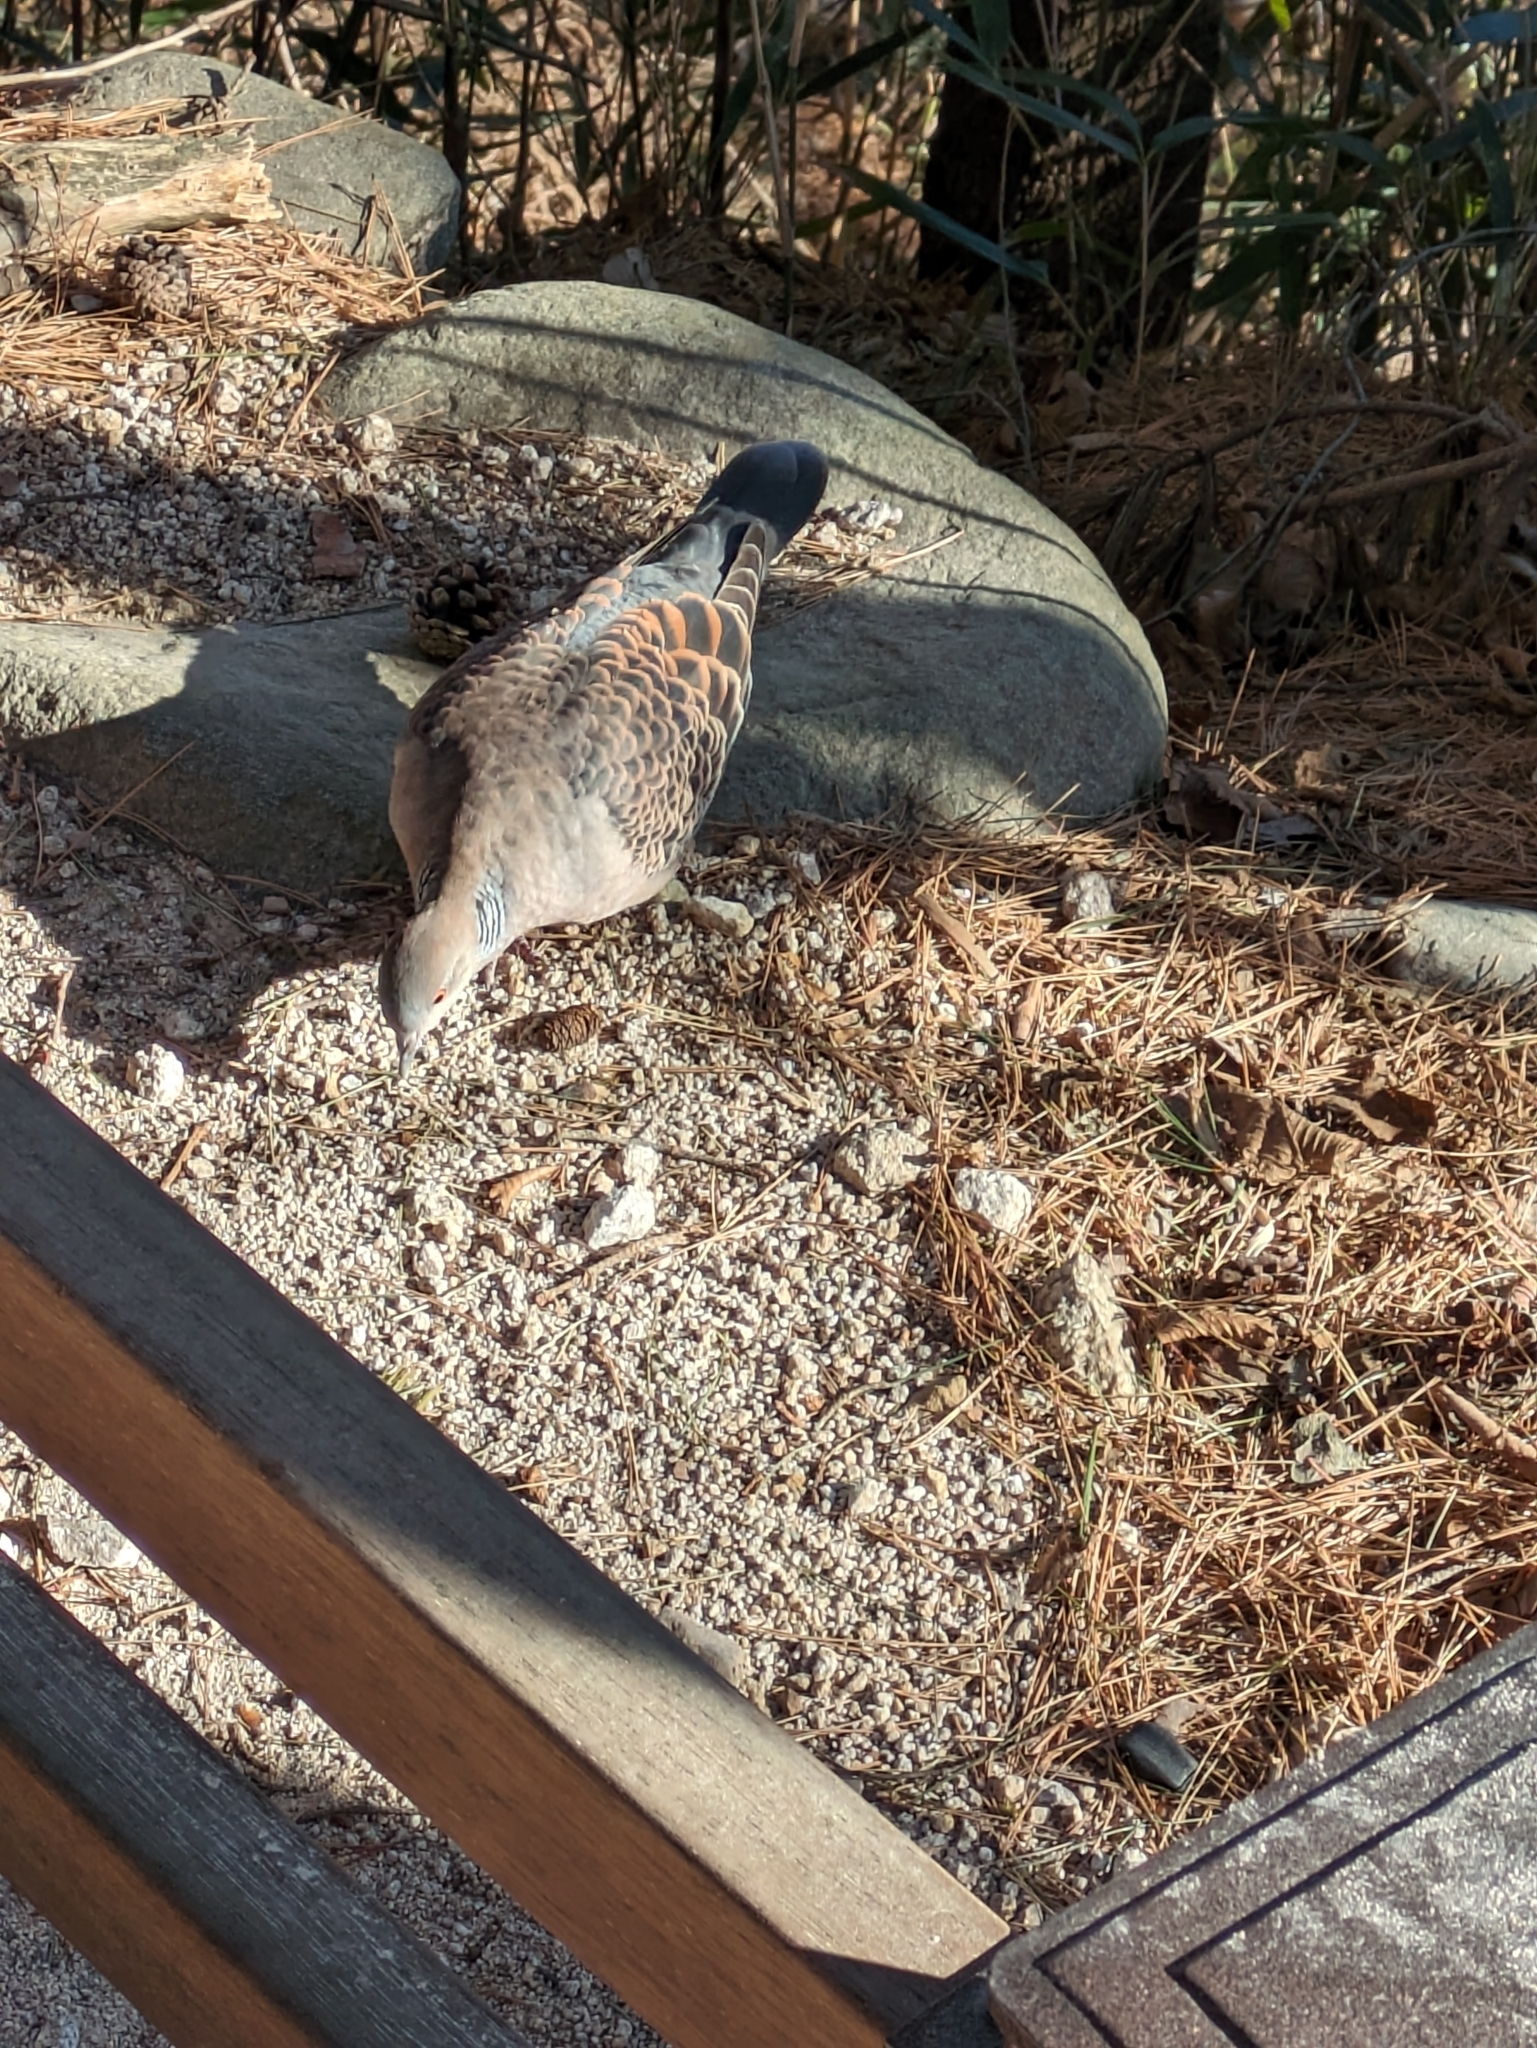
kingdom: Animalia
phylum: Chordata
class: Aves
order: Columbiformes
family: Columbidae
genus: Streptopelia
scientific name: Streptopelia orientalis
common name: Oriental turtle dove
